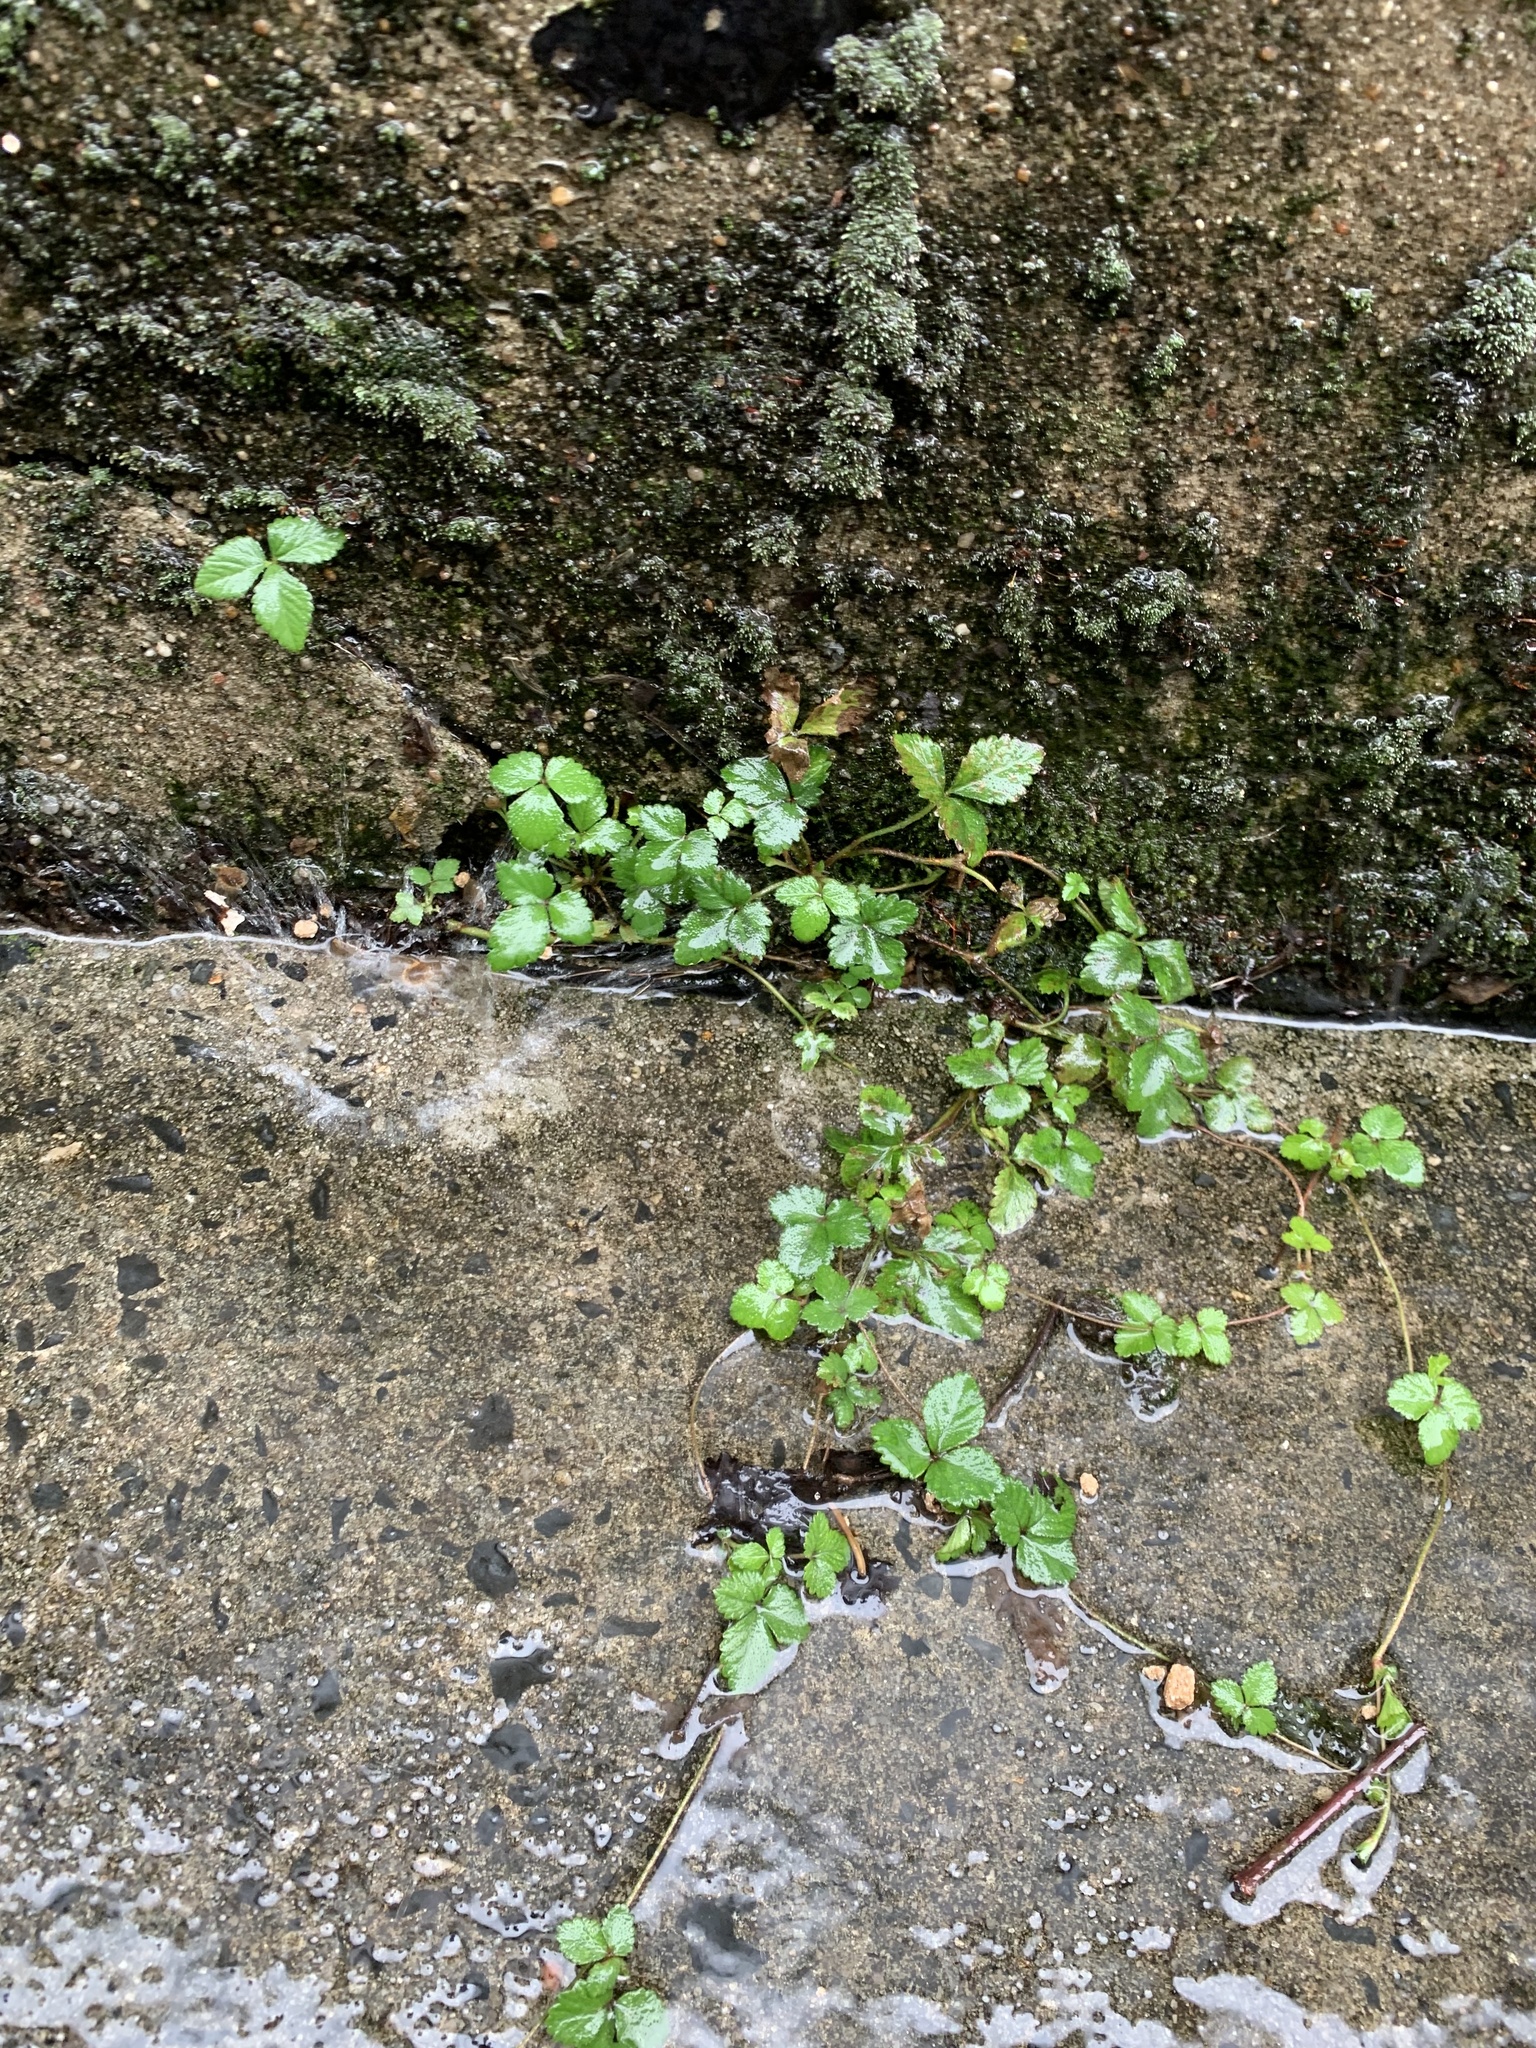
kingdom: Plantae
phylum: Tracheophyta
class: Magnoliopsida
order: Rosales
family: Rosaceae
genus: Potentilla
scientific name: Potentilla indica
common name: Yellow-flowered strawberry
